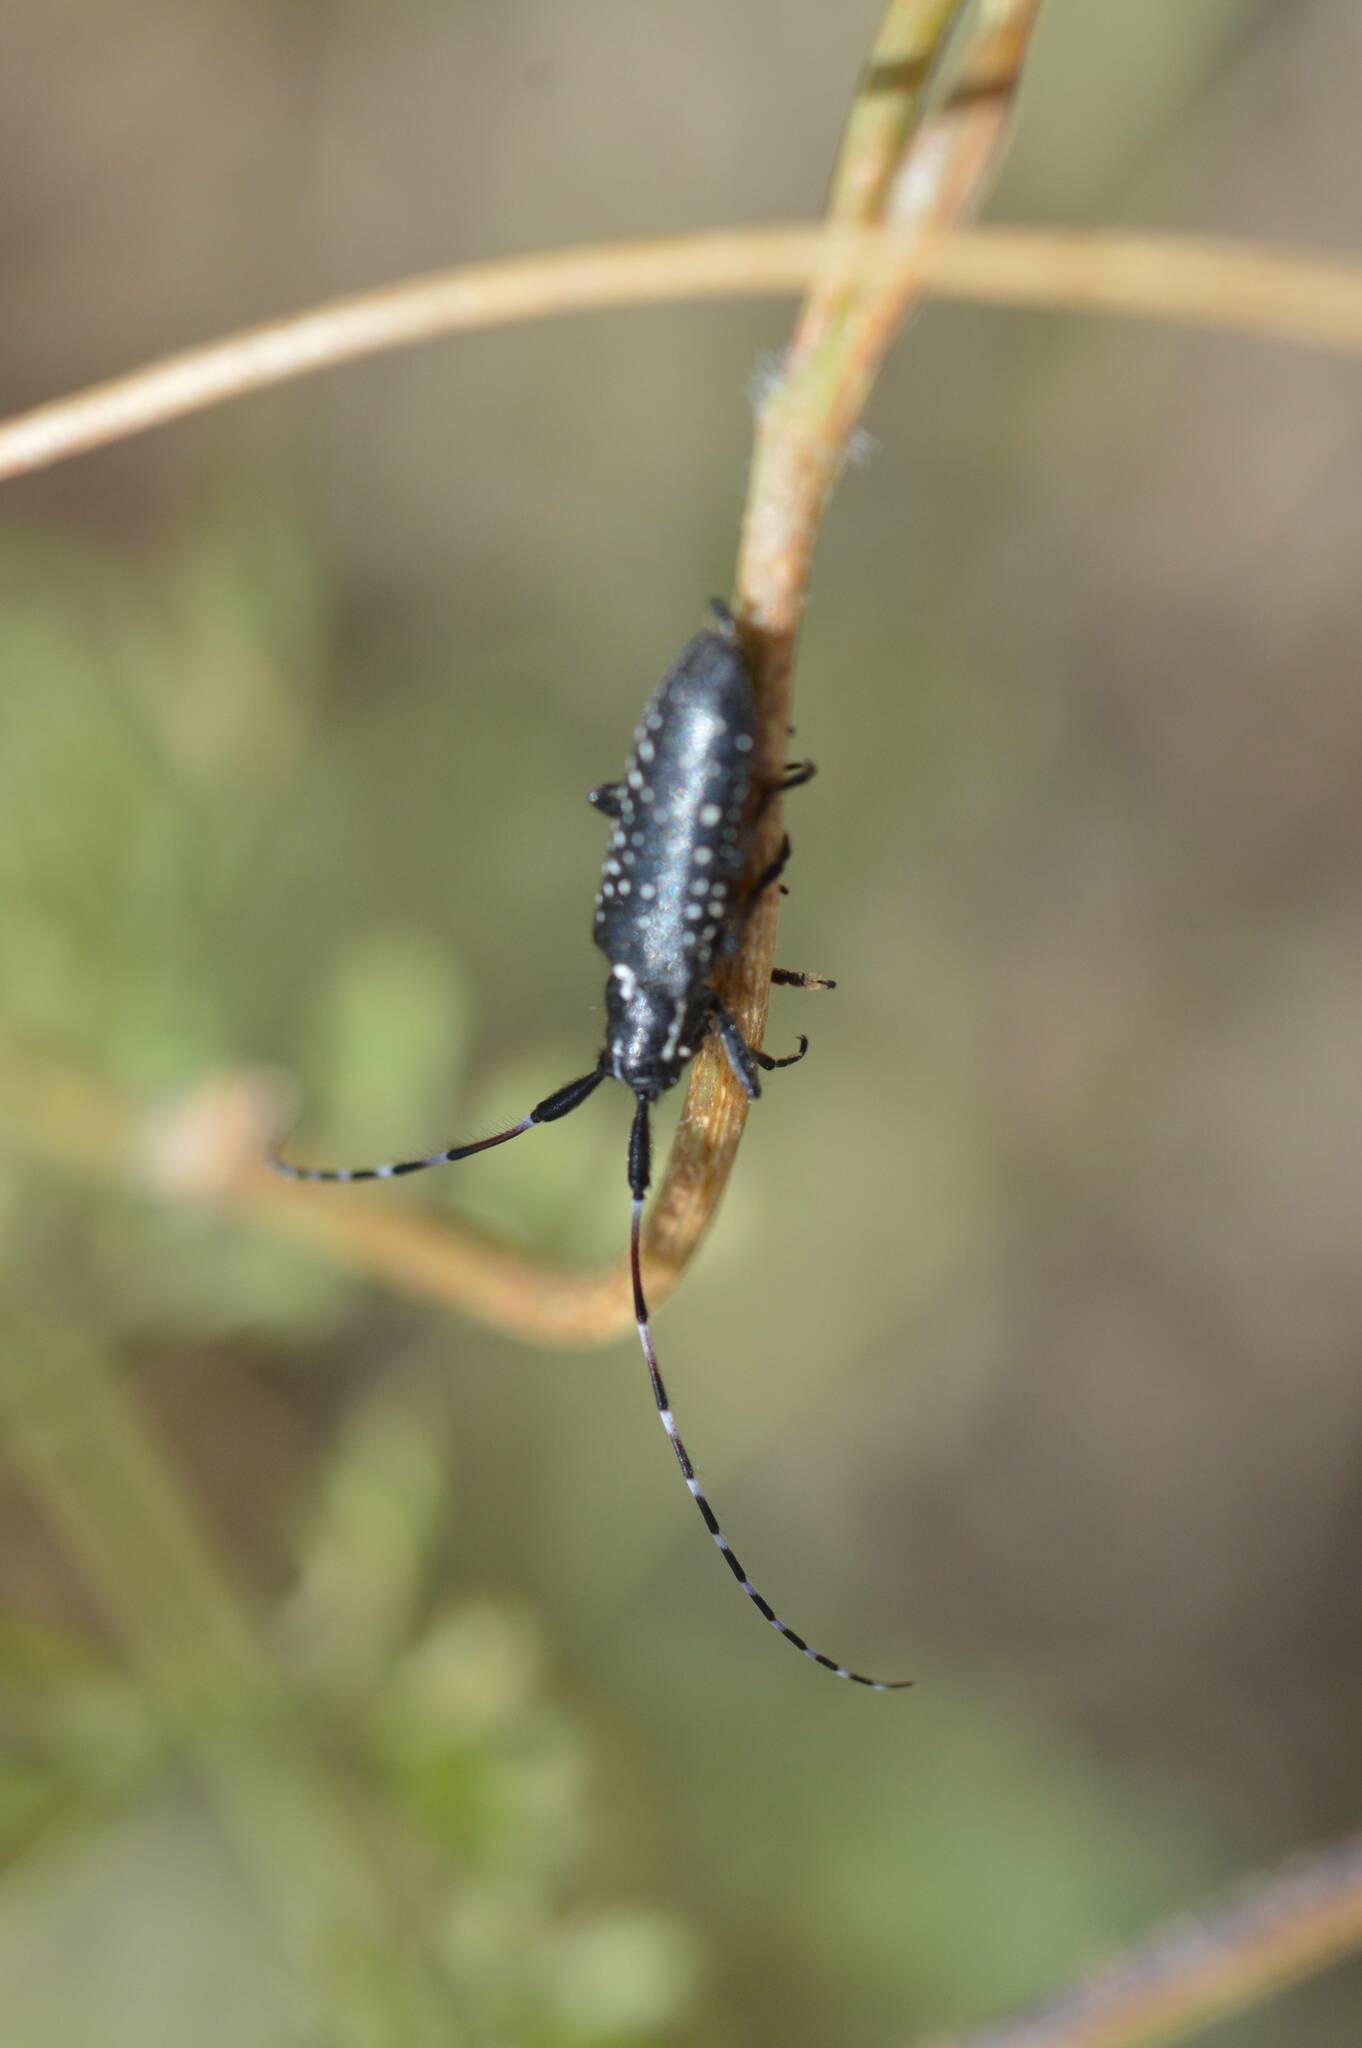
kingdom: Animalia
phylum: Arthropoda
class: Insecta
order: Coleoptera
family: Cerambycidae
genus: Agapanthia
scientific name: Agapanthia irrorata
